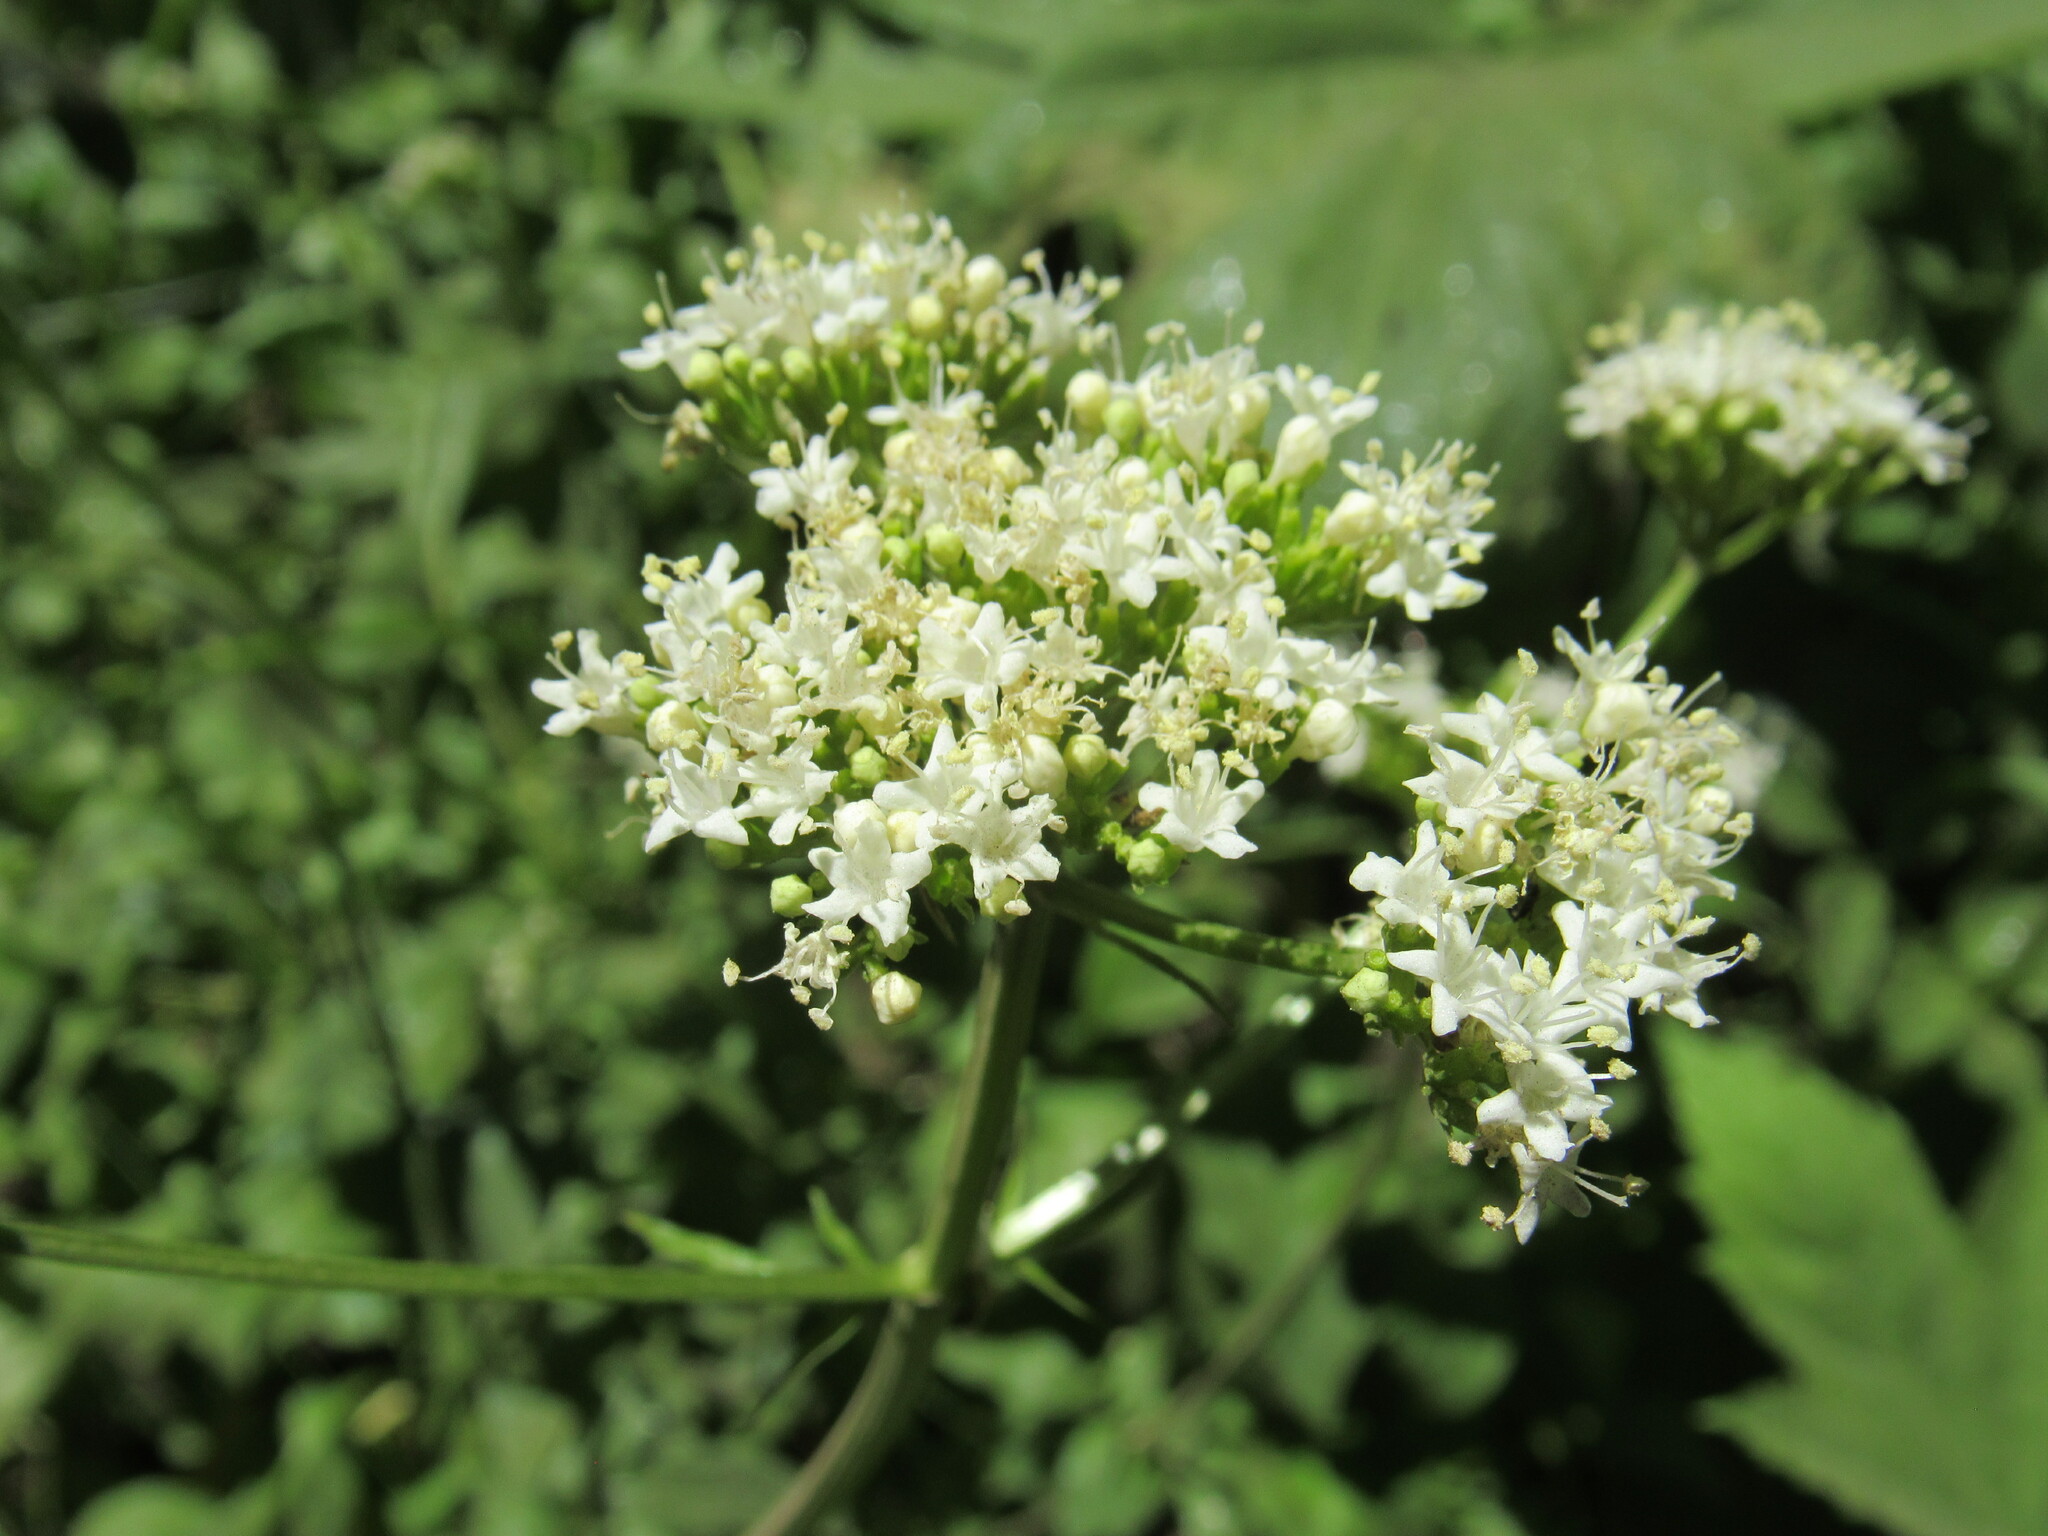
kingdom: Plantae
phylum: Tracheophyta
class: Magnoliopsida
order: Dipsacales
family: Caprifoliaceae
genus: Valeriana
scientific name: Valeriana occidentalis
